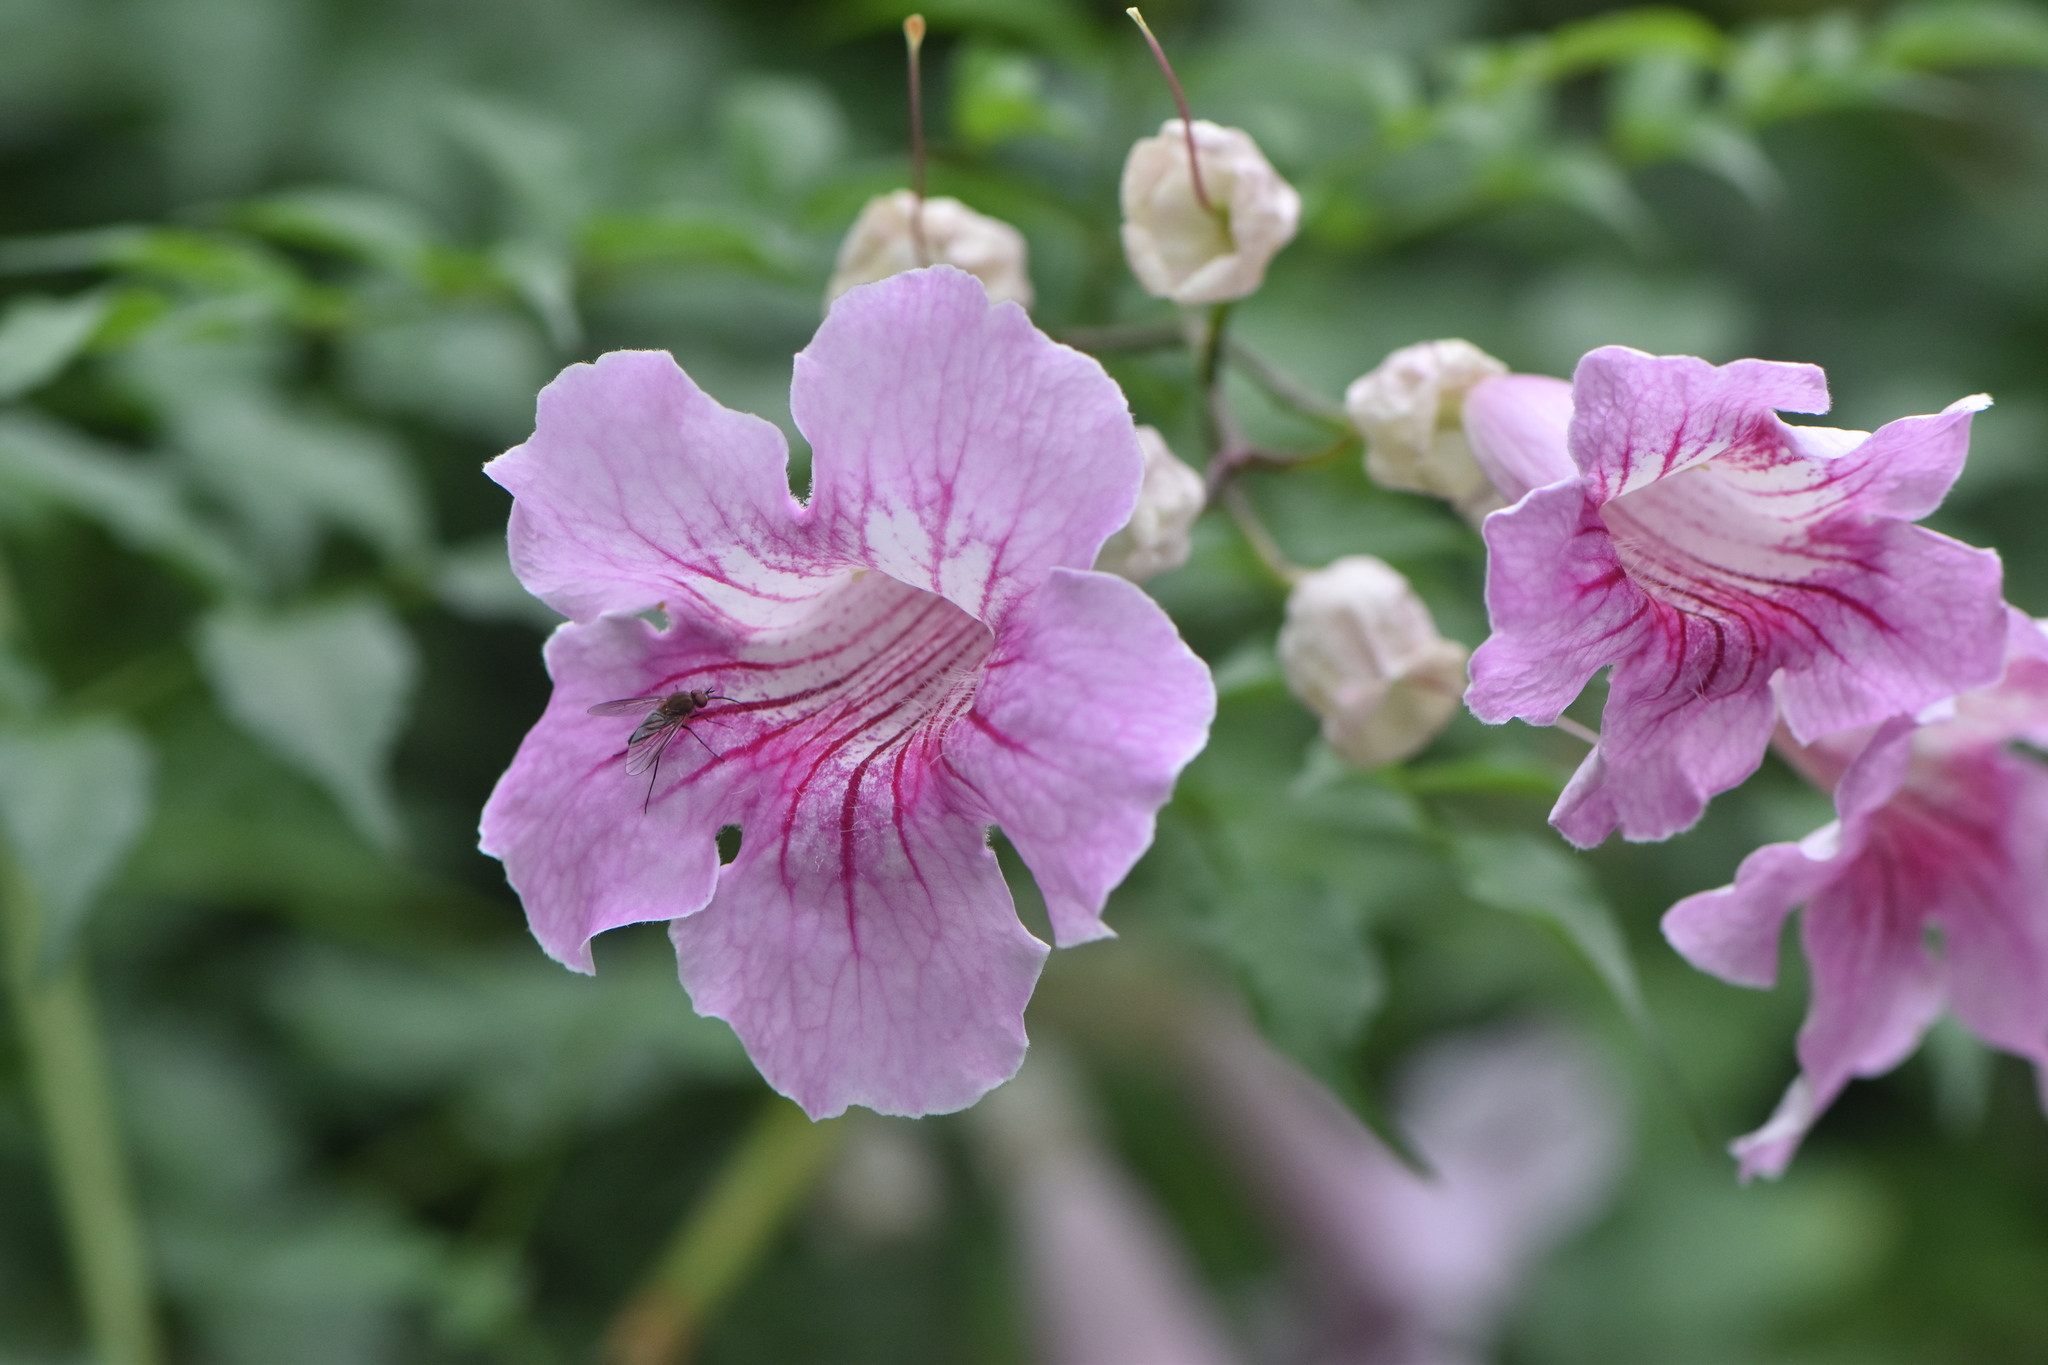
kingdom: Plantae
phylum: Tracheophyta
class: Magnoliopsida
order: Lamiales
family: Bignoniaceae
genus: Podranea
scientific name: Podranea ricasoliana
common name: Zimbabwe creeper
